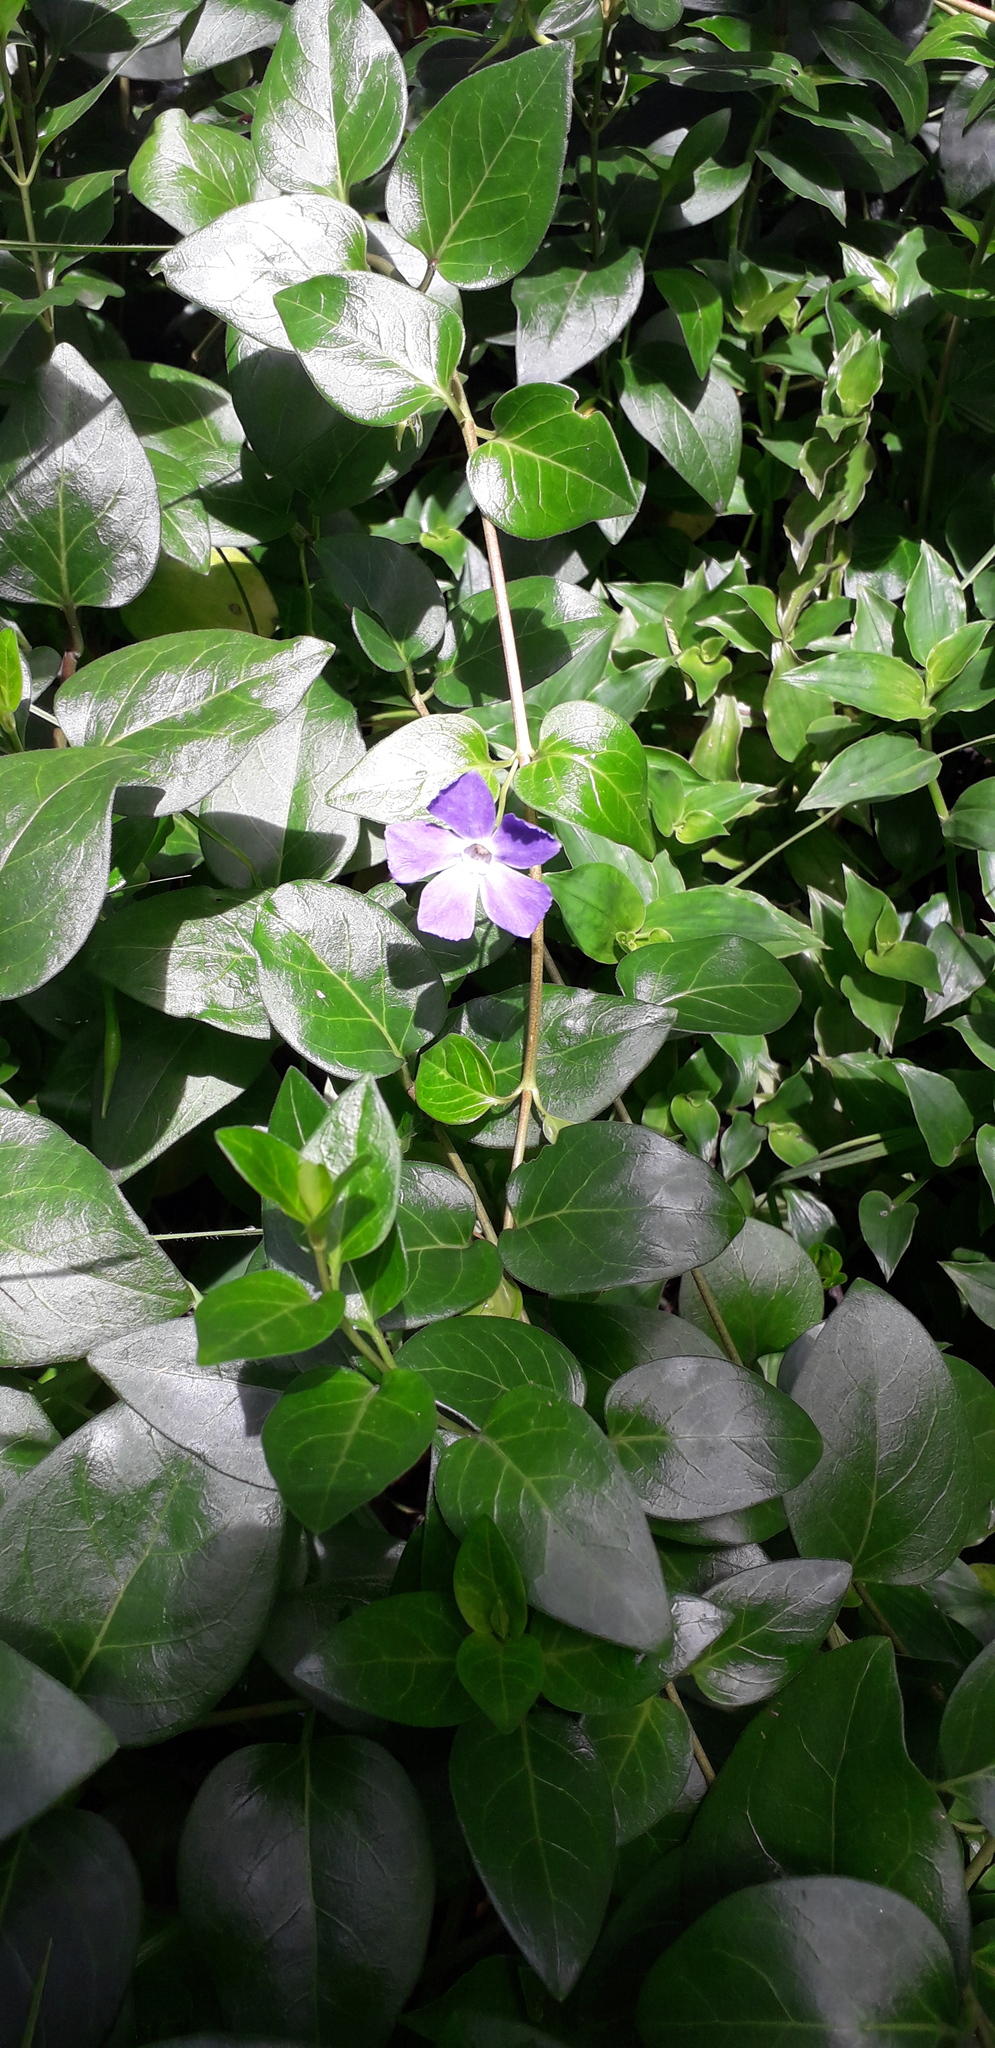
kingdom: Plantae
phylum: Tracheophyta
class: Magnoliopsida
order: Gentianales
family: Apocynaceae
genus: Vinca
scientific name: Vinca major
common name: Greater periwinkle
